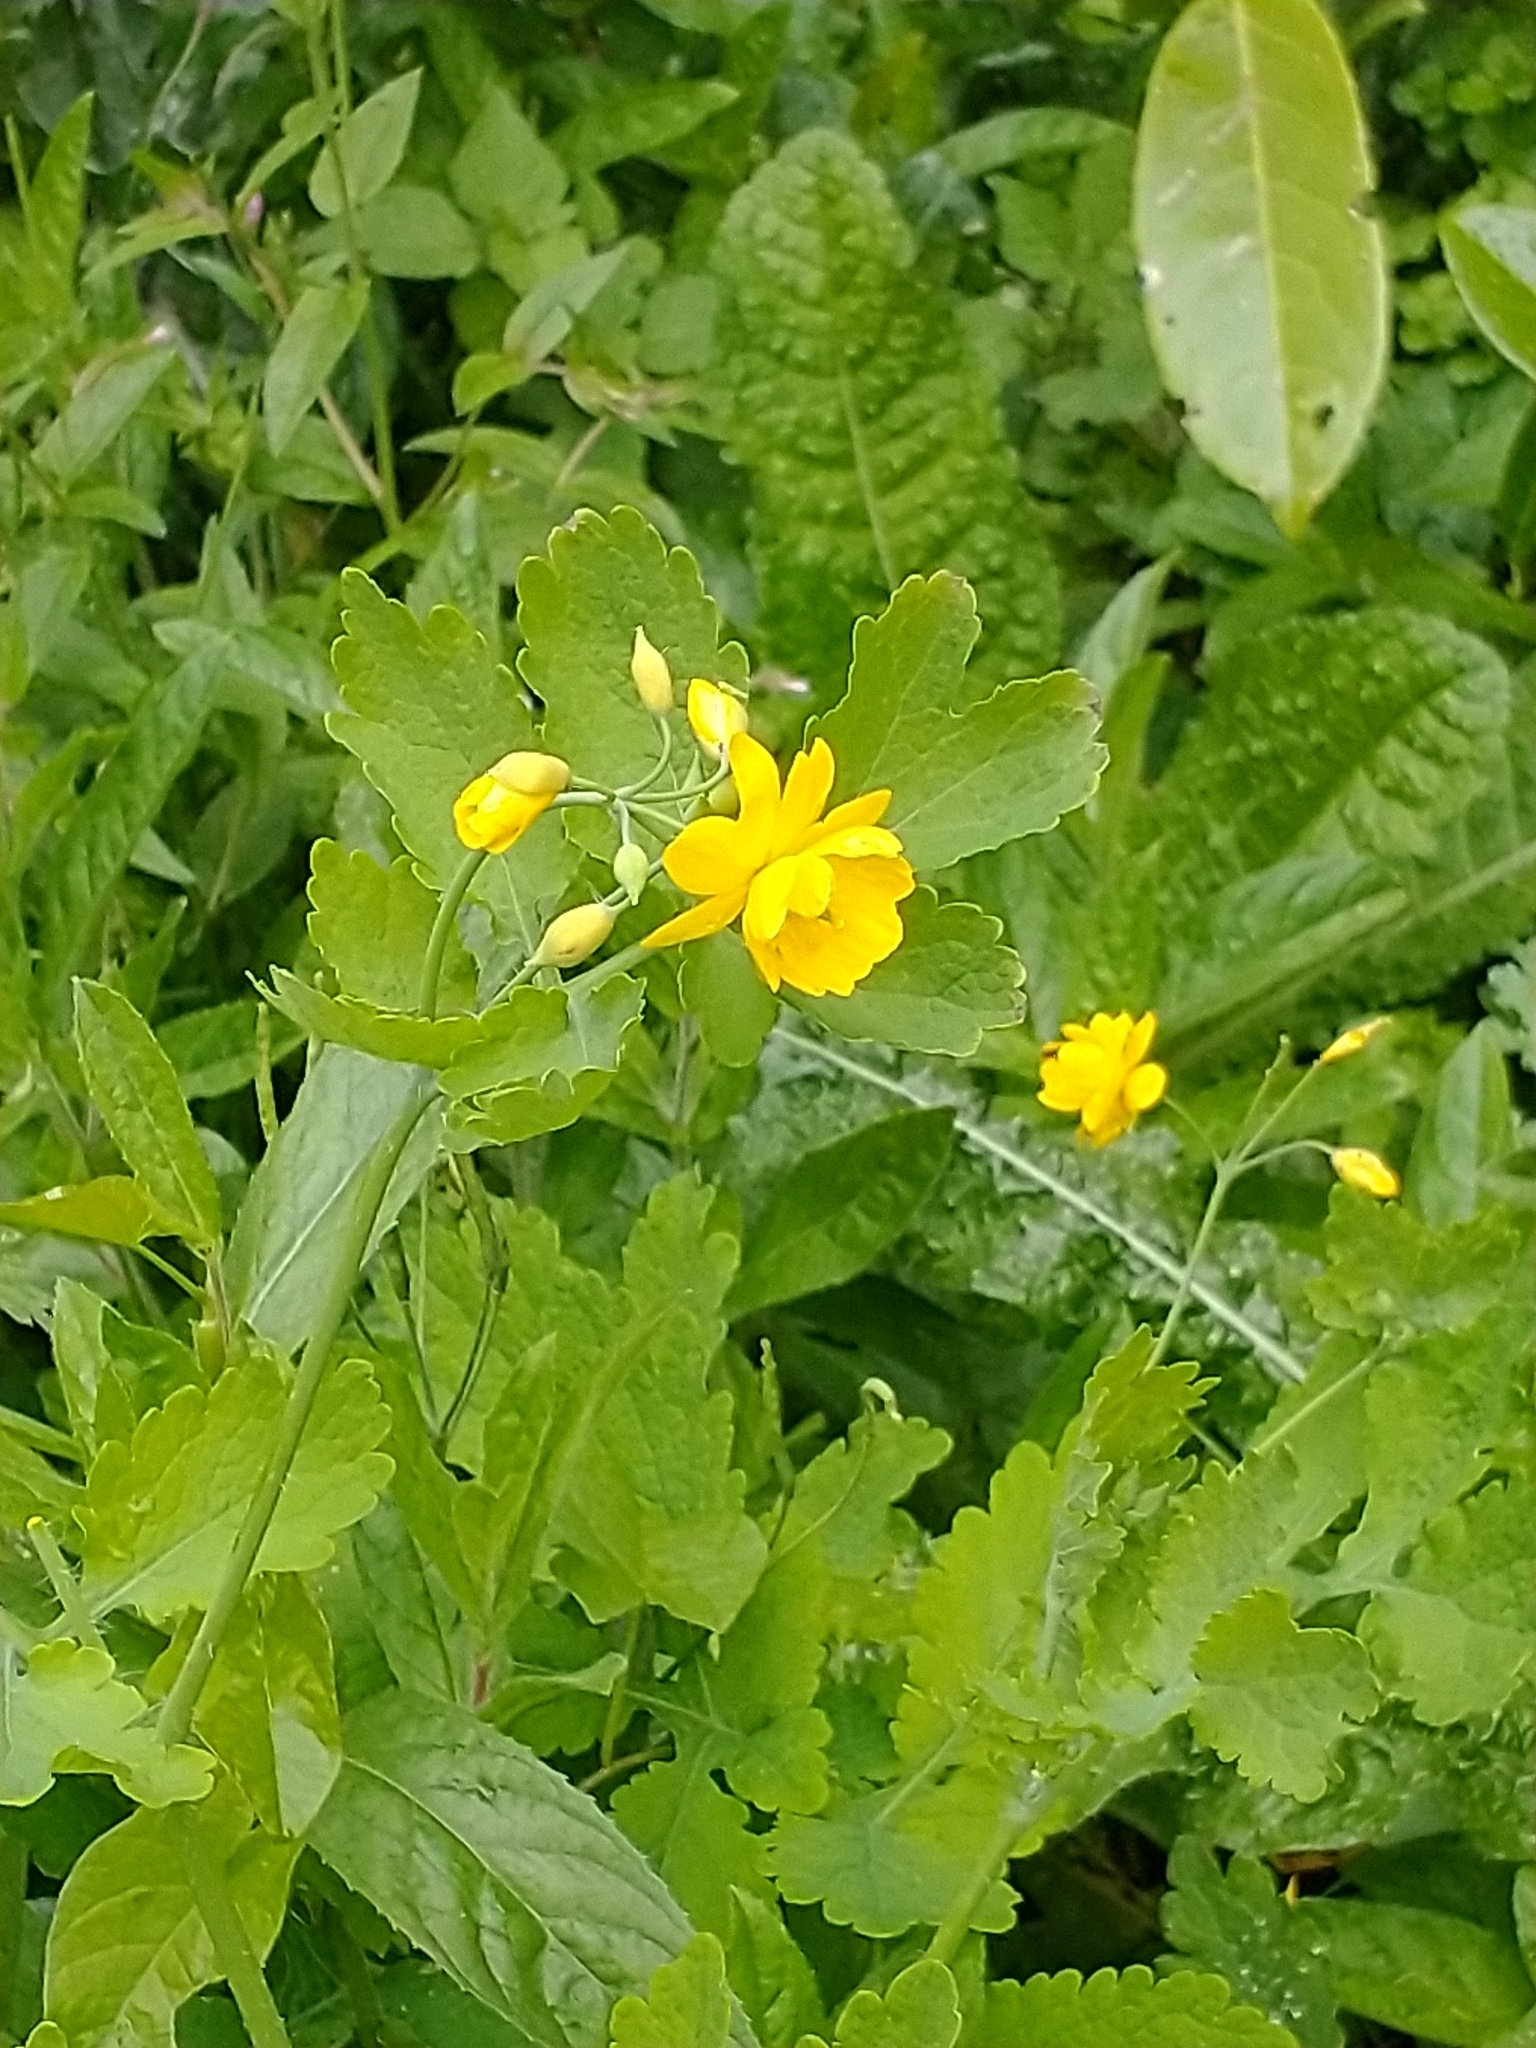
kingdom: Plantae
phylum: Tracheophyta
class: Magnoliopsida
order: Ranunculales
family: Papaveraceae
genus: Chelidonium
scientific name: Chelidonium majus
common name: Greater celandine
